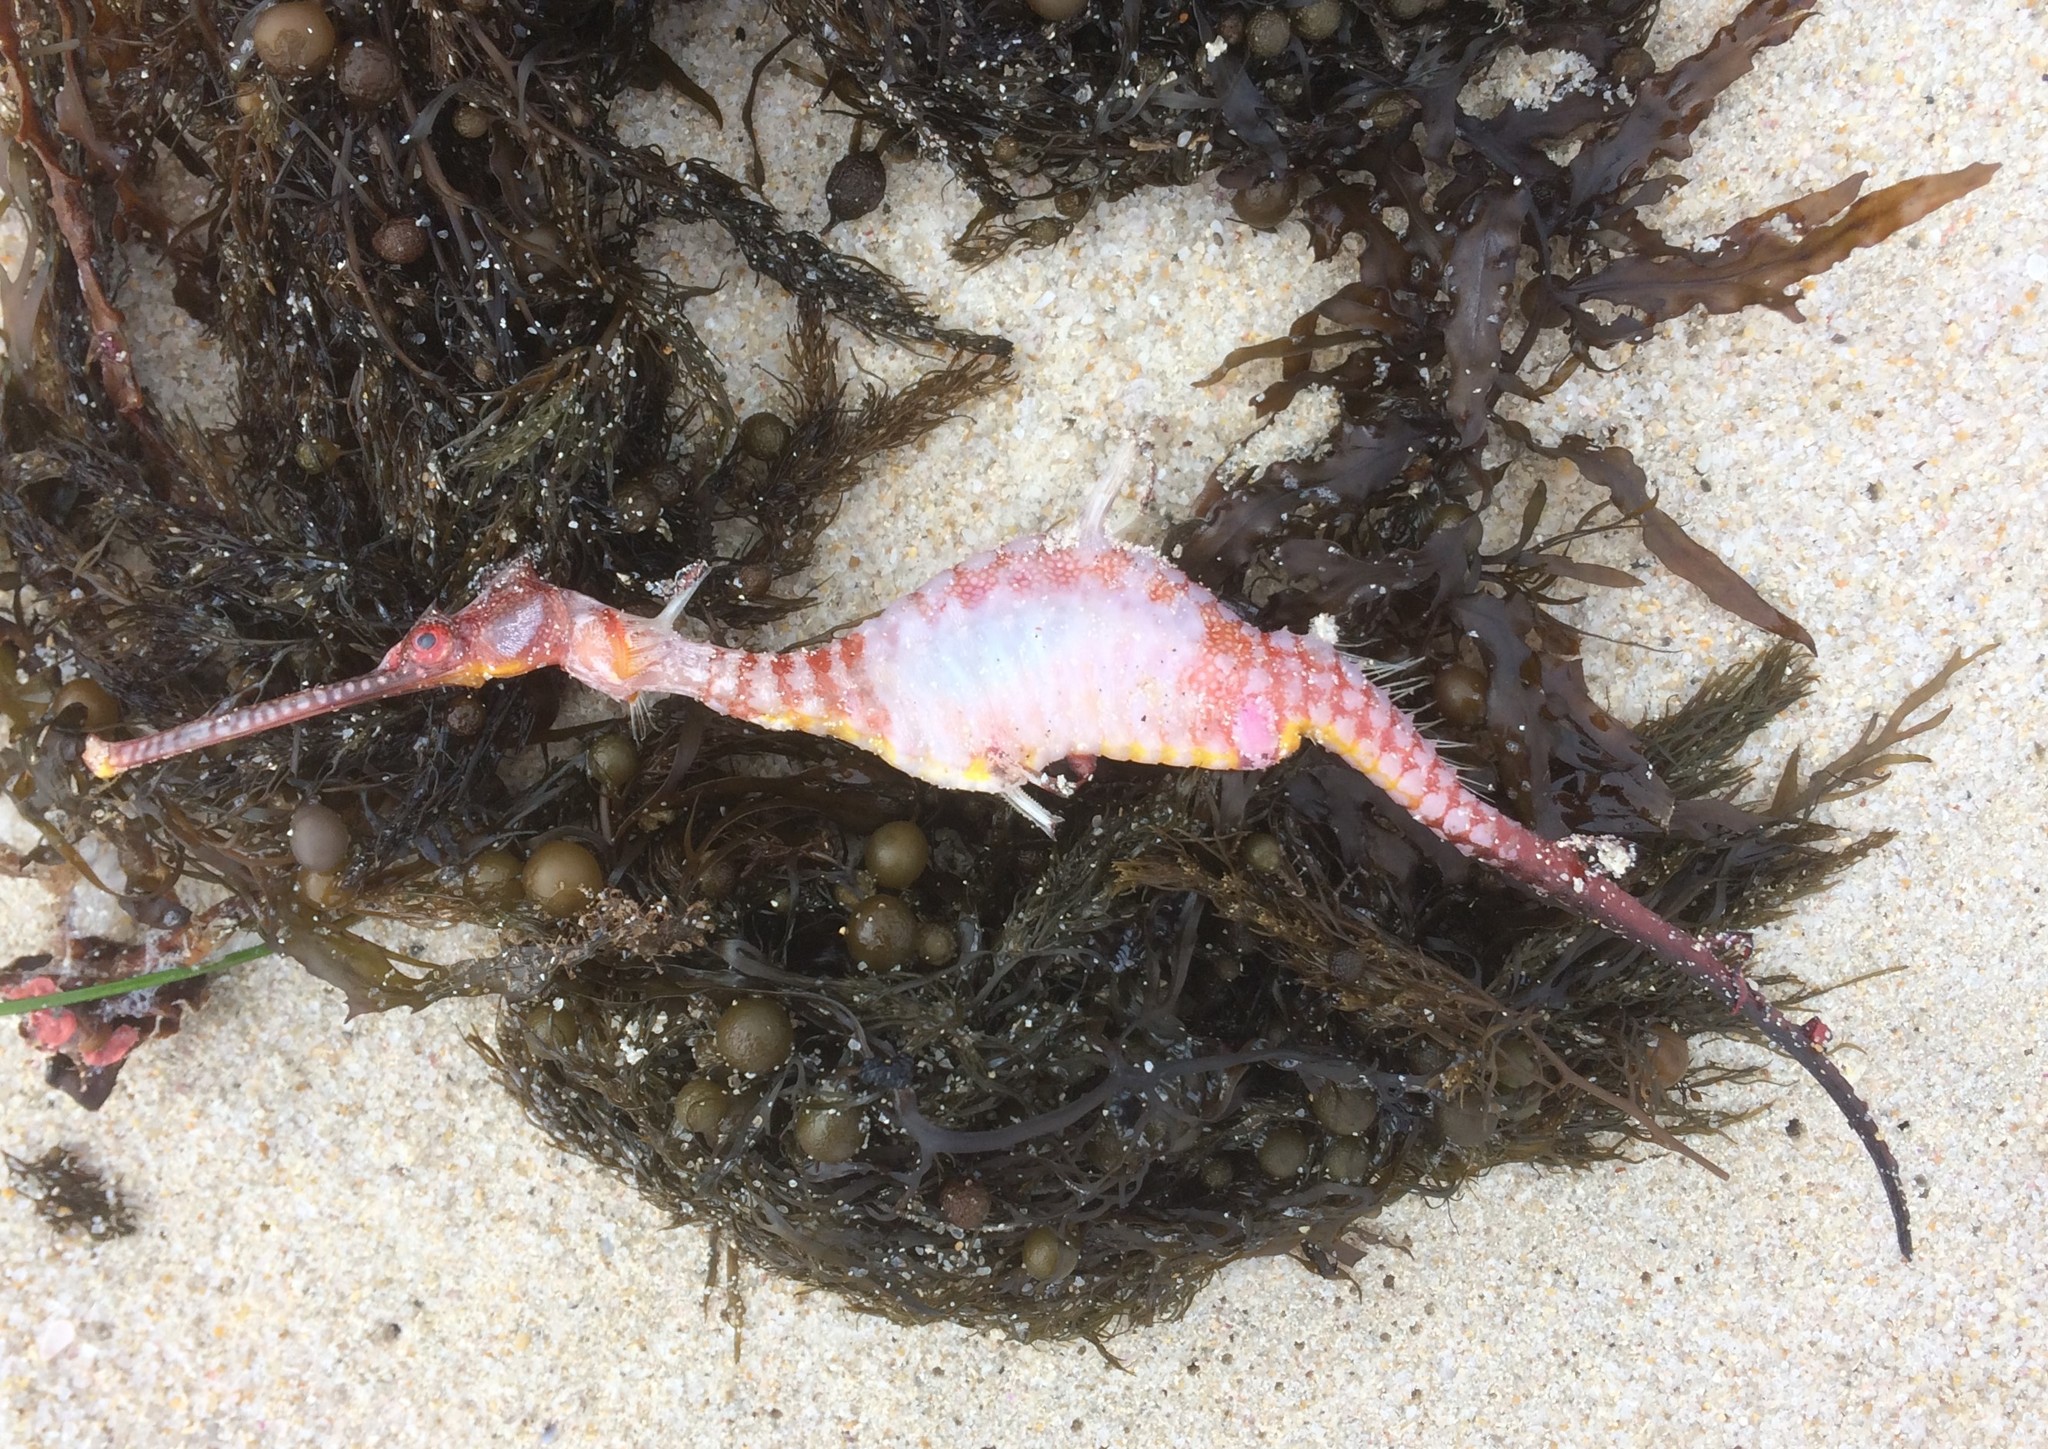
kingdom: Animalia
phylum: Chordata
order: Syngnathiformes
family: Syngnathidae
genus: Phyllopteryx
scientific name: Phyllopteryx taeniolatus
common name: Common seadragon
